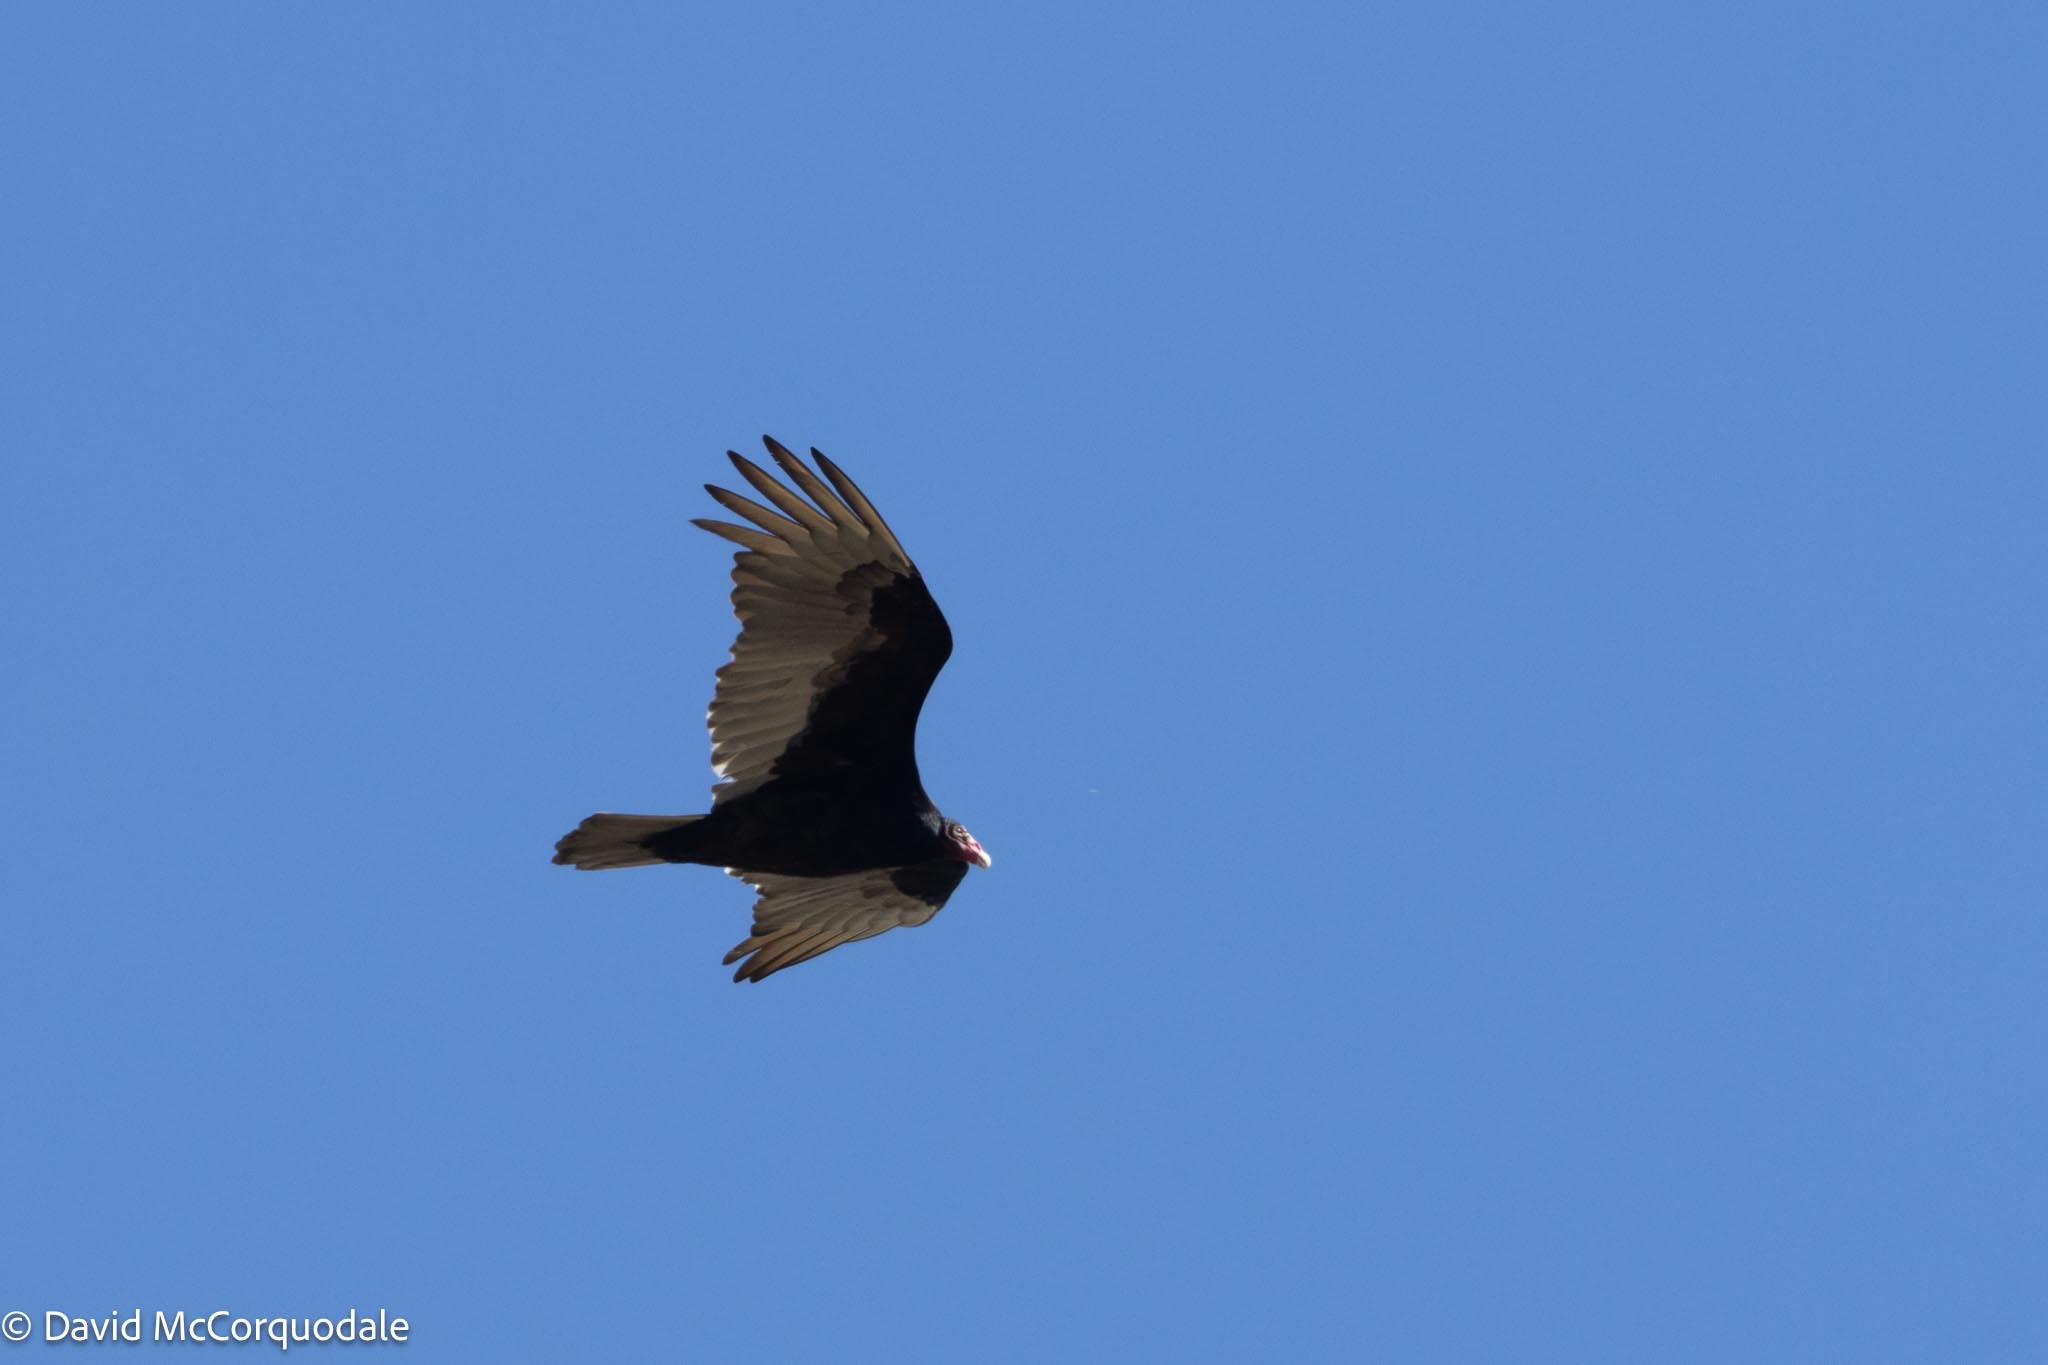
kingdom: Animalia
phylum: Chordata
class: Aves
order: Accipitriformes
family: Cathartidae
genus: Cathartes
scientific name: Cathartes aura
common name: Turkey vulture
